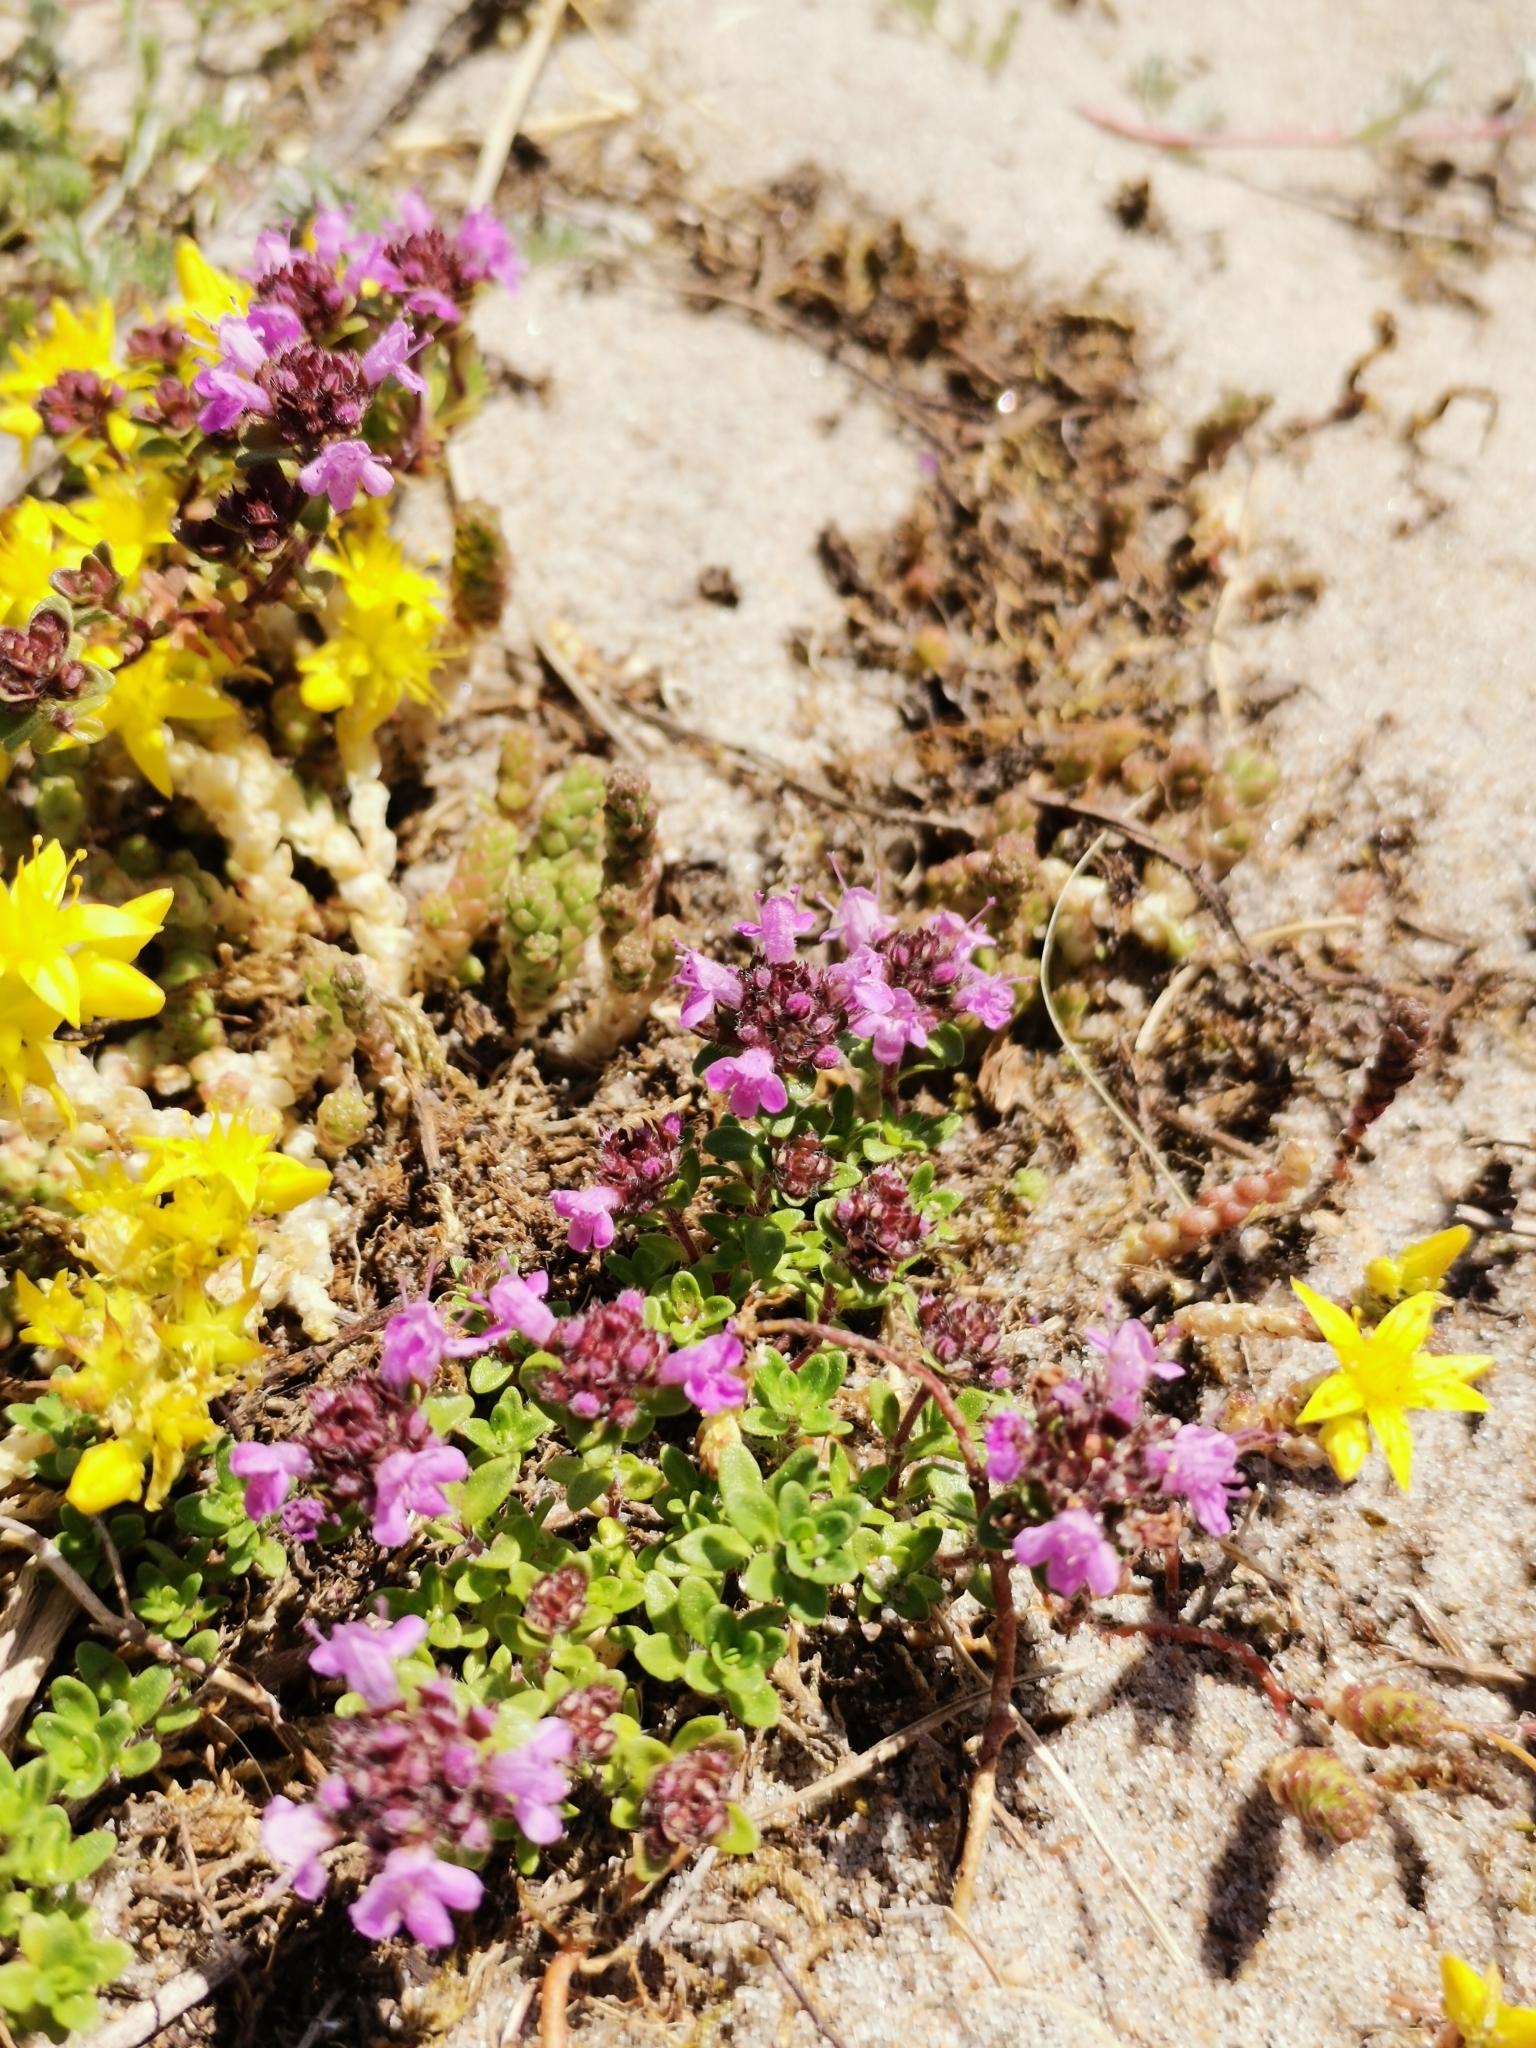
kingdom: Plantae
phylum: Tracheophyta
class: Magnoliopsida
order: Lamiales
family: Lamiaceae
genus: Thymus
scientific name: Thymus serpyllum
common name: Breckland thyme
